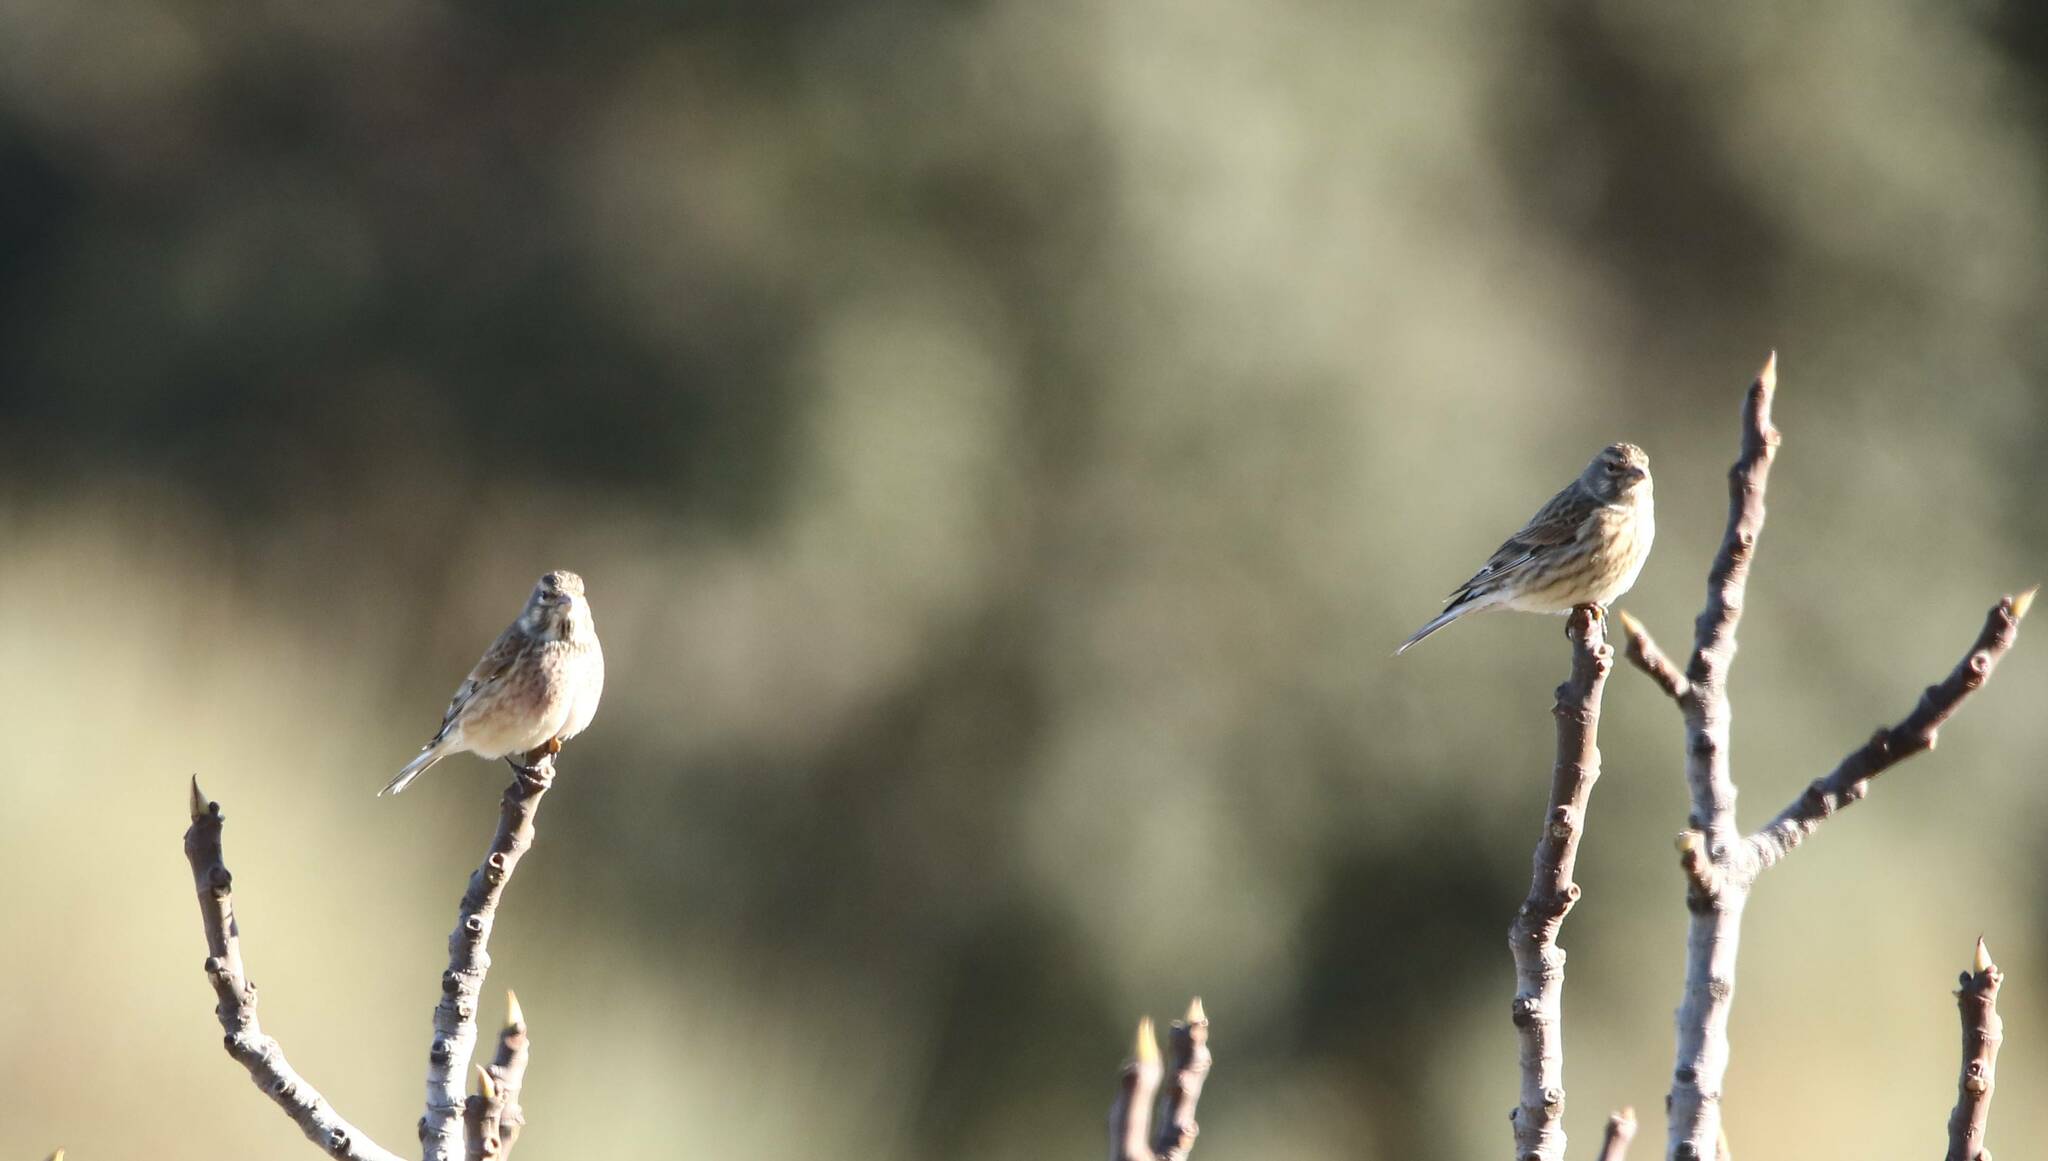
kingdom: Animalia
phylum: Chordata
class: Aves
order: Passeriformes
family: Fringillidae
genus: Linaria
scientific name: Linaria cannabina
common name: Common linnet
